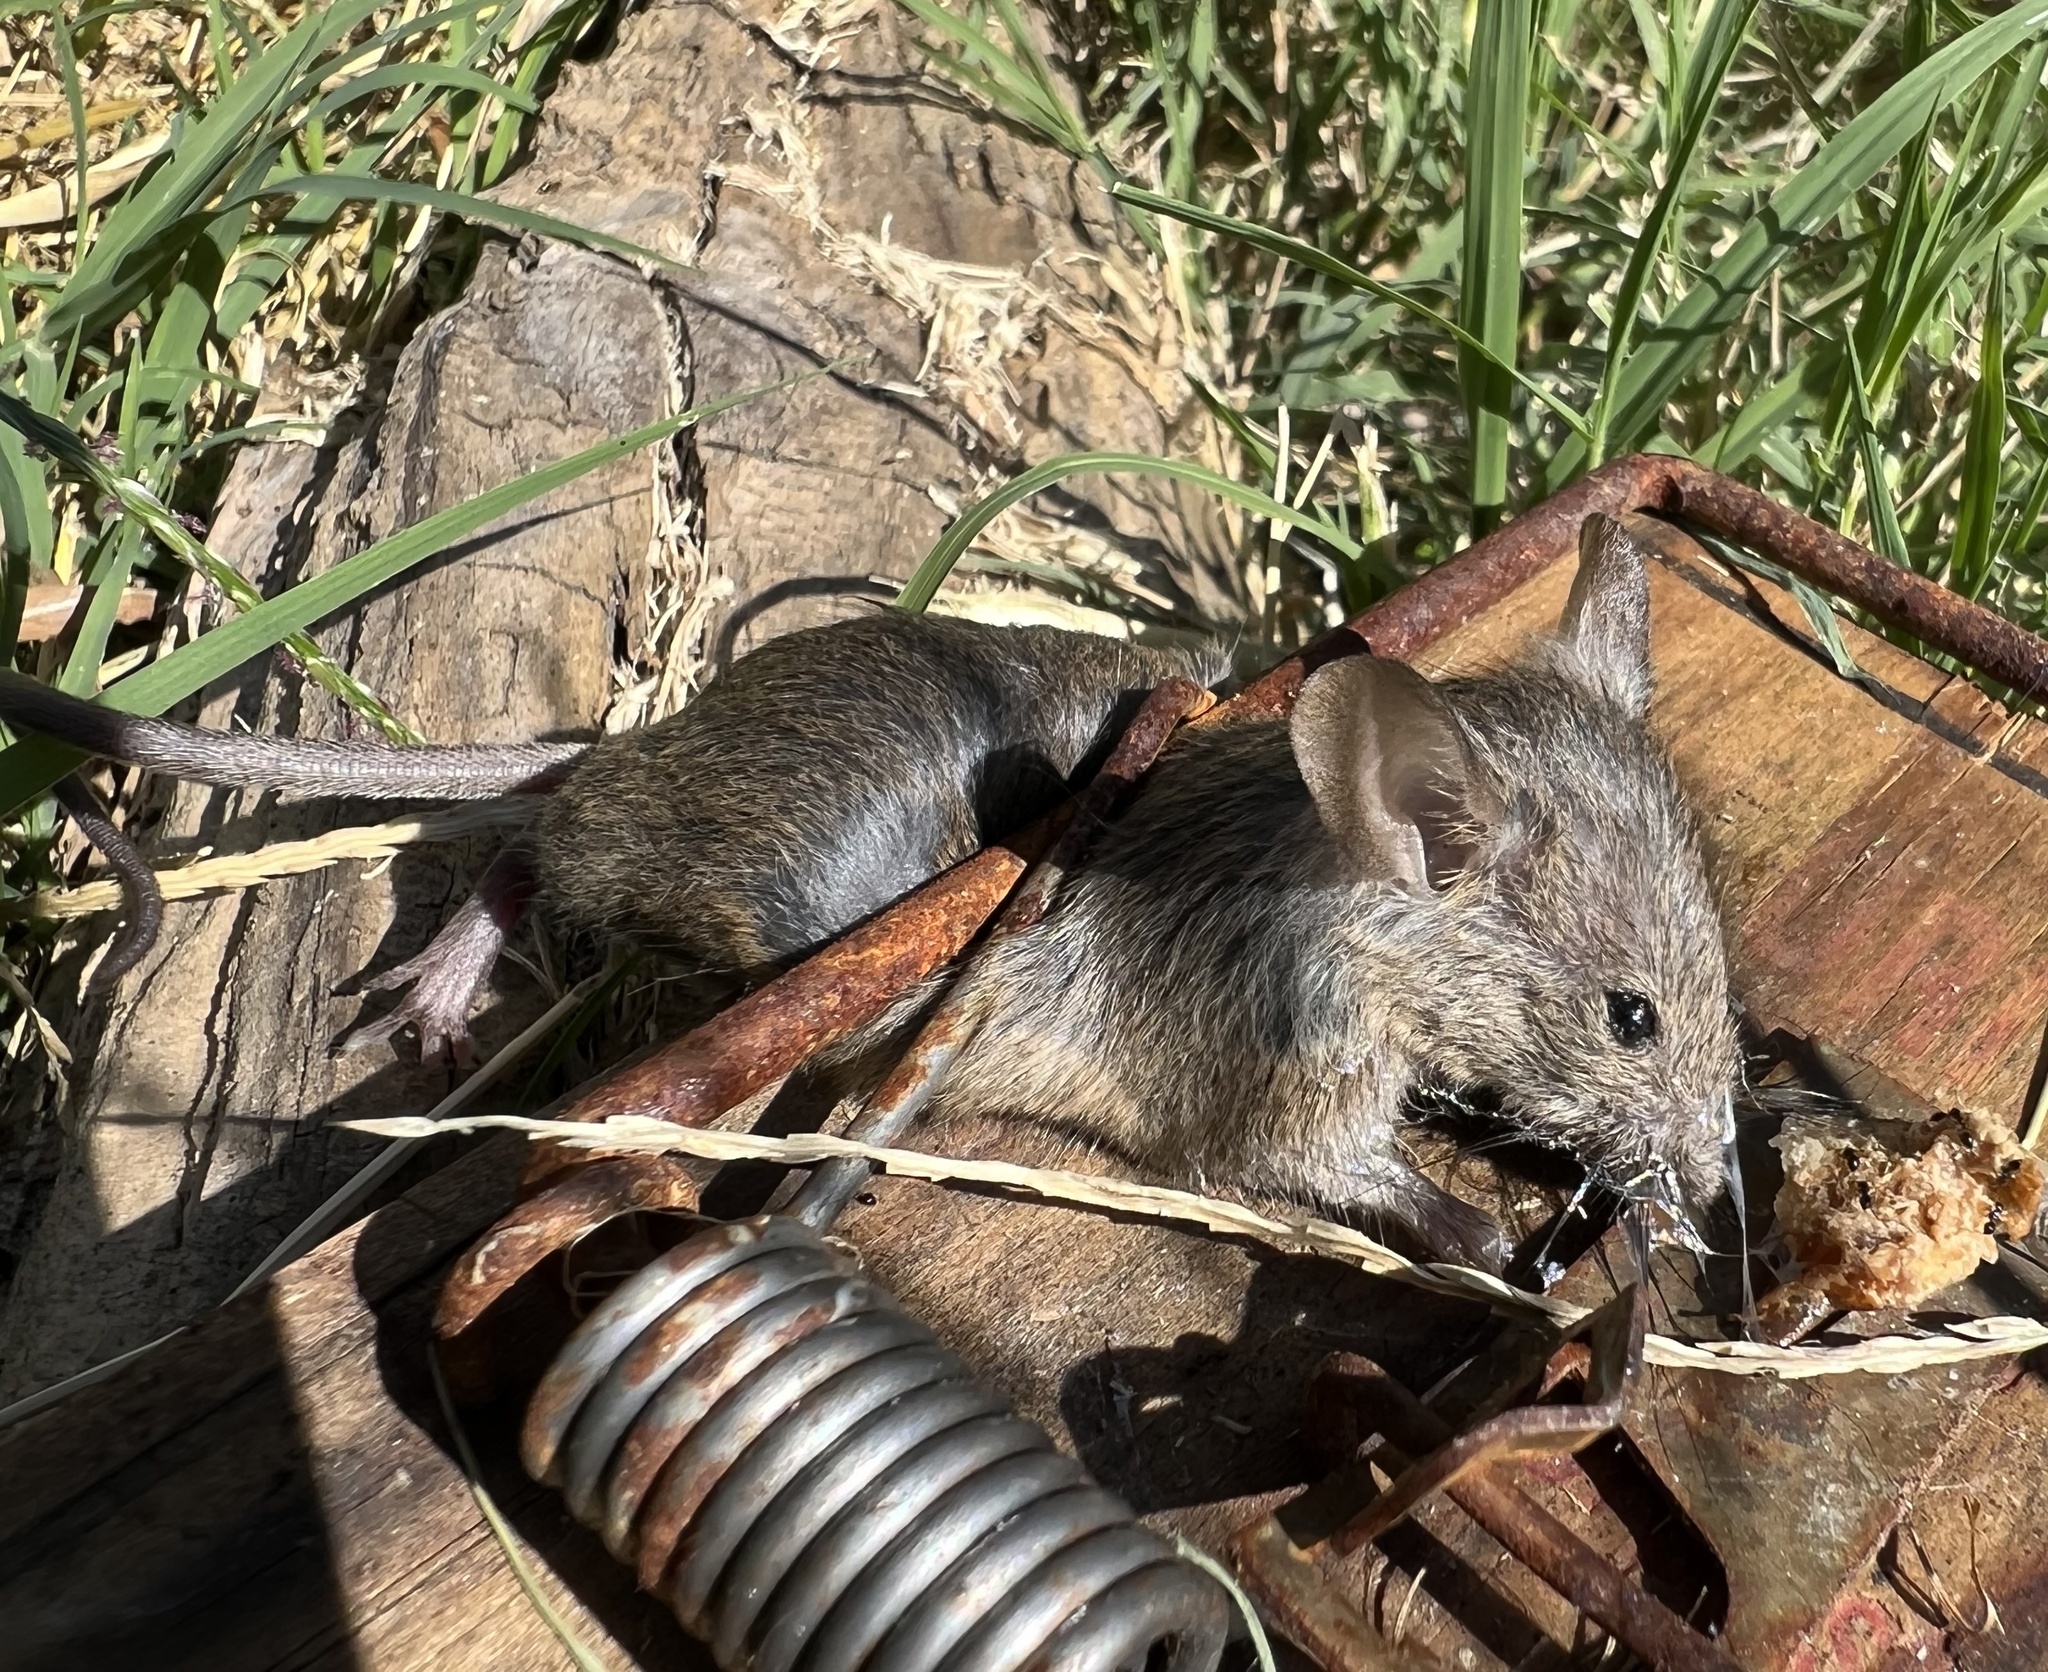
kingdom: Animalia
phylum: Chordata
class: Mammalia
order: Rodentia
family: Muridae
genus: Mus
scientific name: Mus musculus
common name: House mouse
